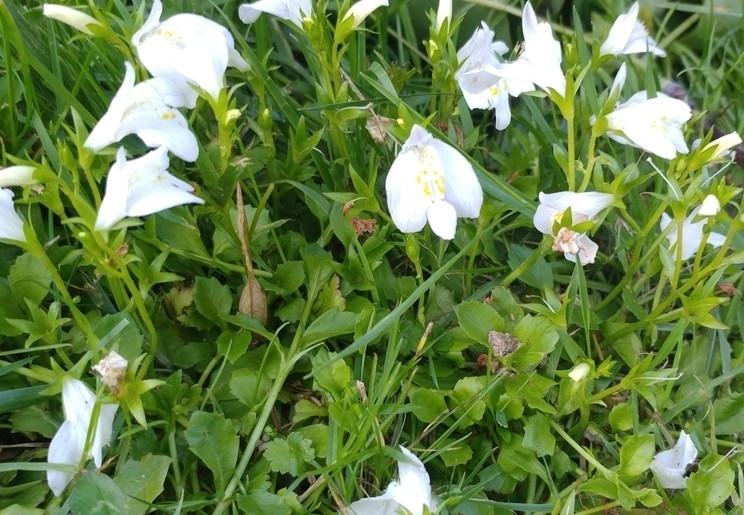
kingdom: Plantae
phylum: Tracheophyta
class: Magnoliopsida
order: Lamiales
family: Mazaceae
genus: Mazus
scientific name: Mazus miquelii
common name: Miquel's mazus
